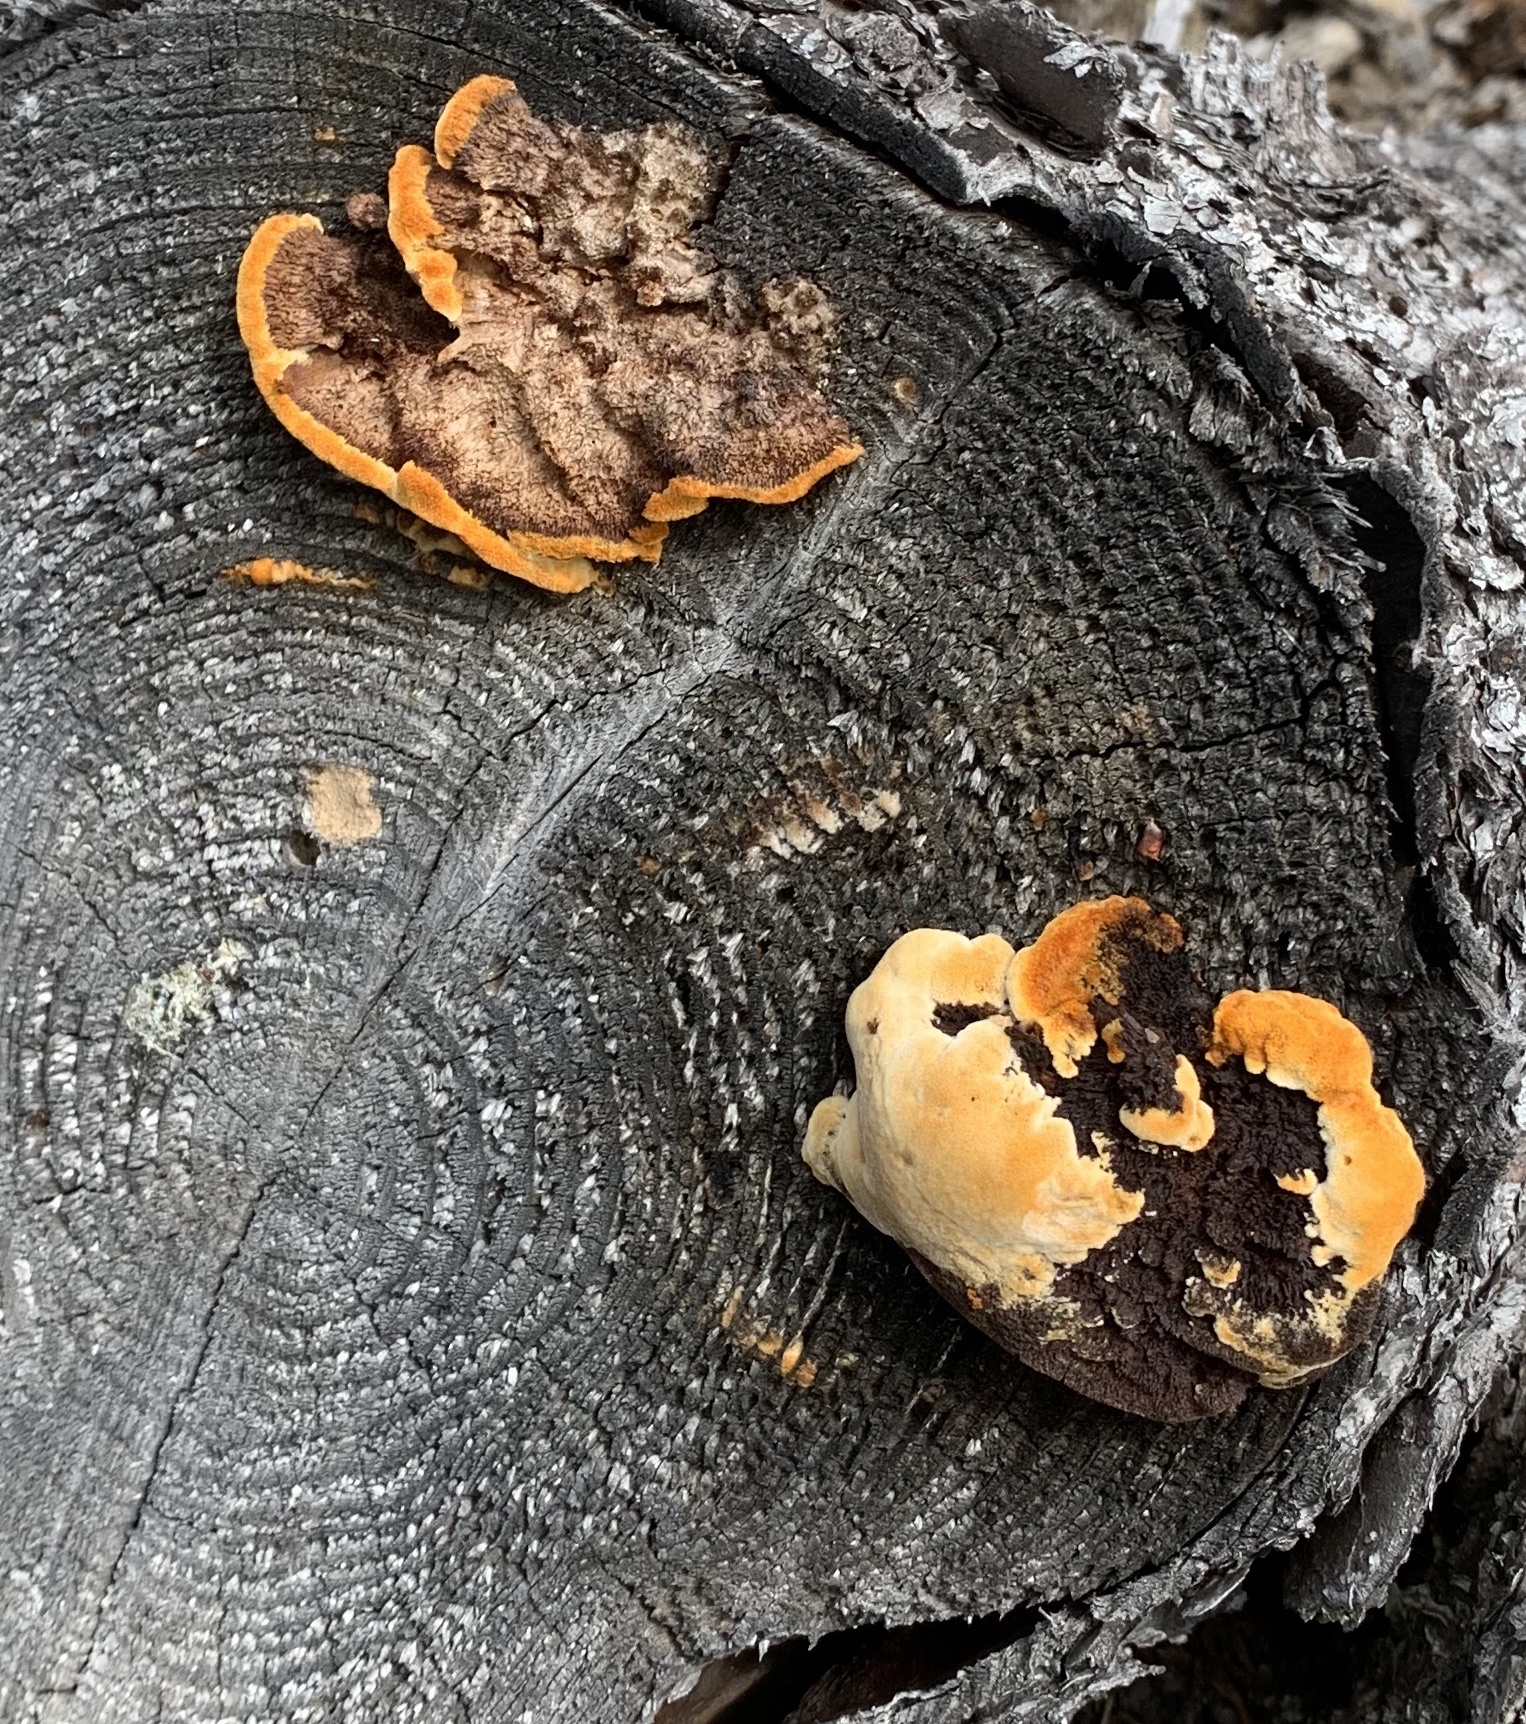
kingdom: Fungi
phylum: Basidiomycota
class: Agaricomycetes
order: Gloeophyllales
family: Gloeophyllaceae
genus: Gloeophyllum
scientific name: Gloeophyllum sepiarium
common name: Conifer mazegill
